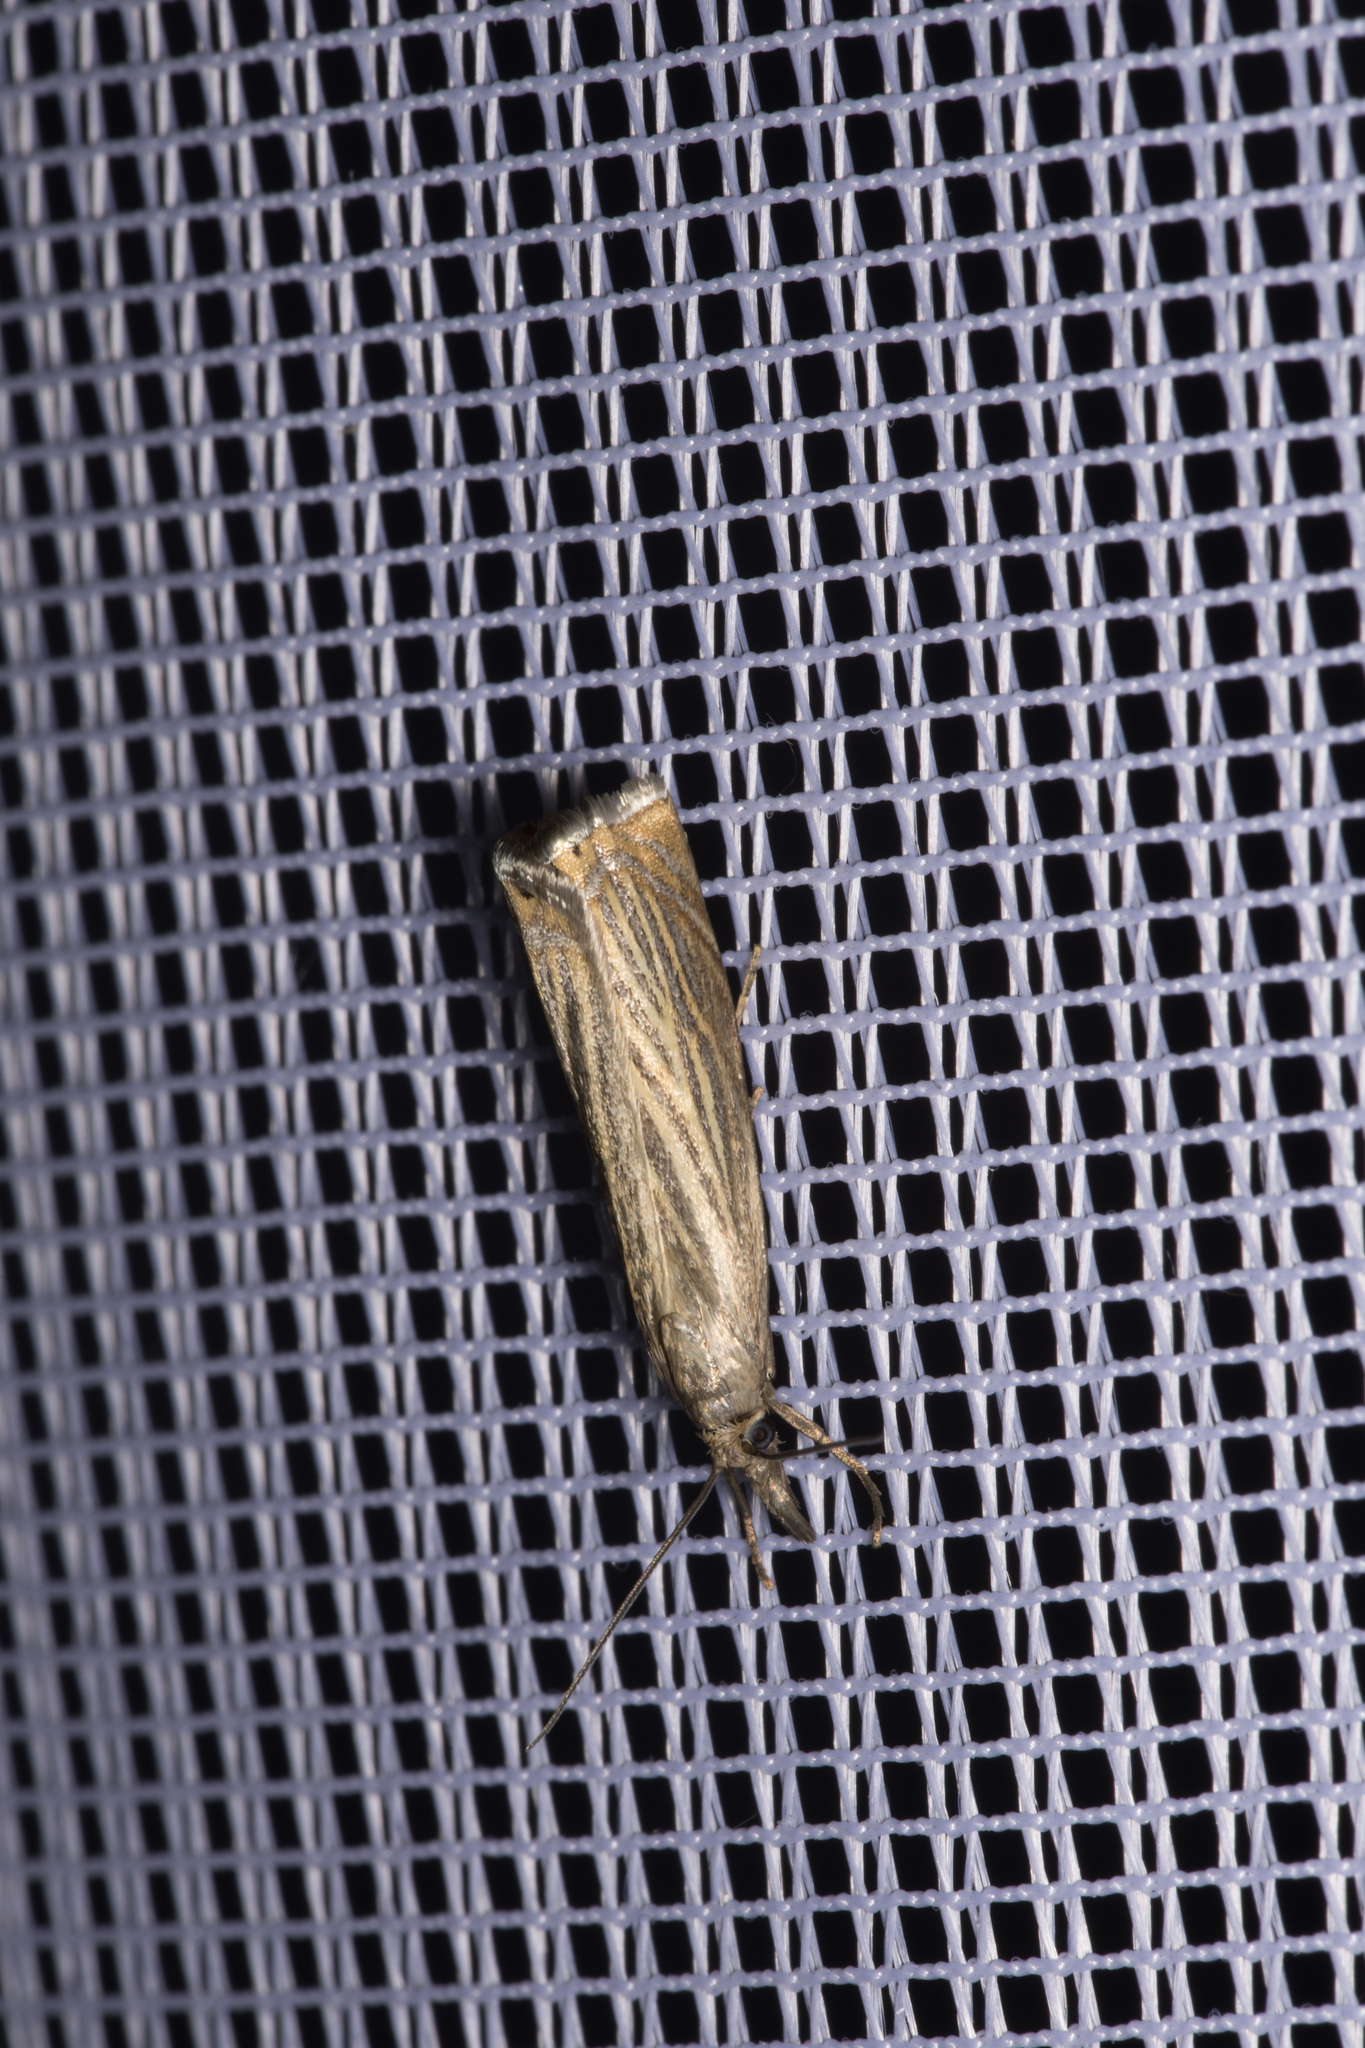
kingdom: Animalia
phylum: Arthropoda
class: Insecta
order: Lepidoptera
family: Crambidae
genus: Chrysoteuchia
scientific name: Chrysoteuchia culmella
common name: Garden grass-veneer
